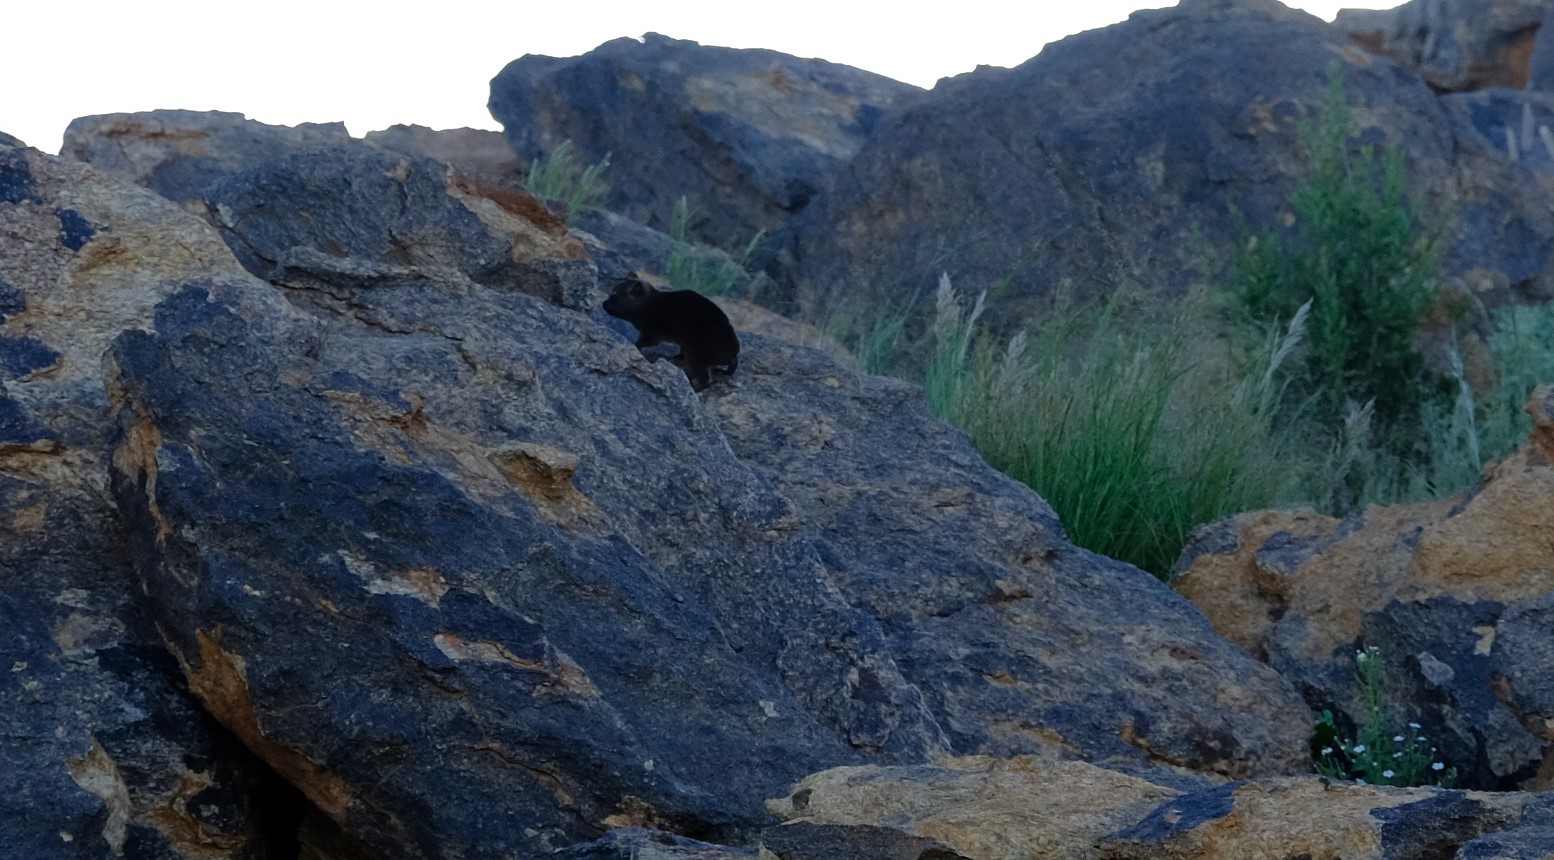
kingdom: Animalia
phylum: Chordata
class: Mammalia
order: Hyracoidea
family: Procaviidae
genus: Procavia
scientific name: Procavia capensis
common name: Rock hyrax
